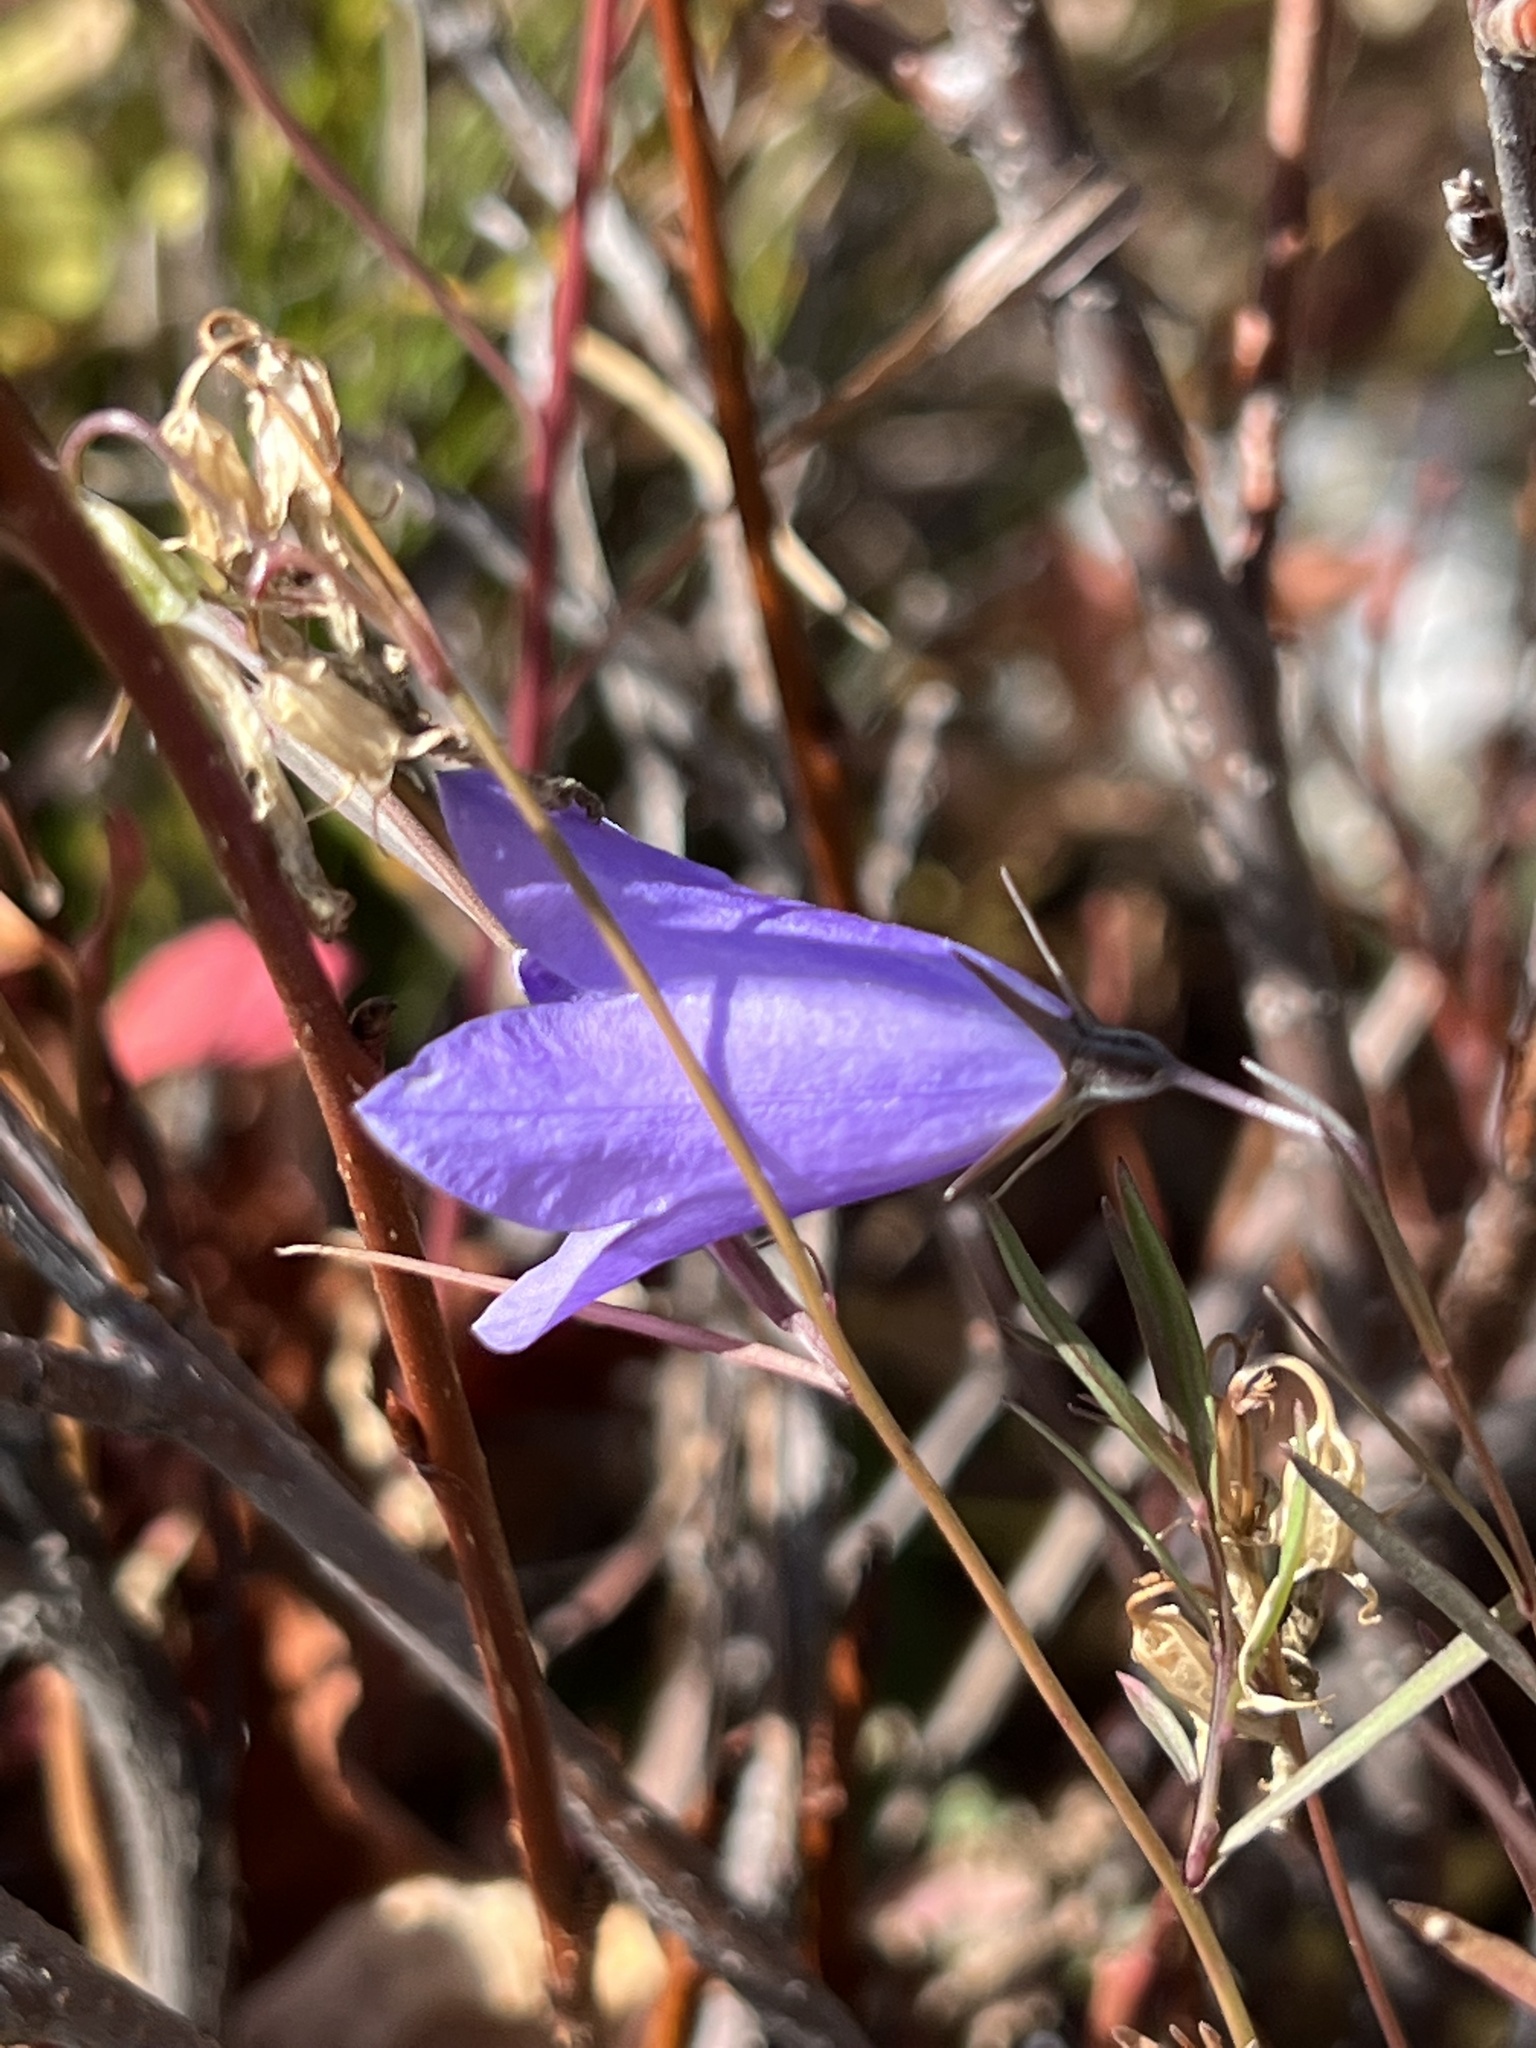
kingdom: Plantae
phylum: Tracheophyta
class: Magnoliopsida
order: Asterales
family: Campanulaceae
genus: Campanula
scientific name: Campanula
